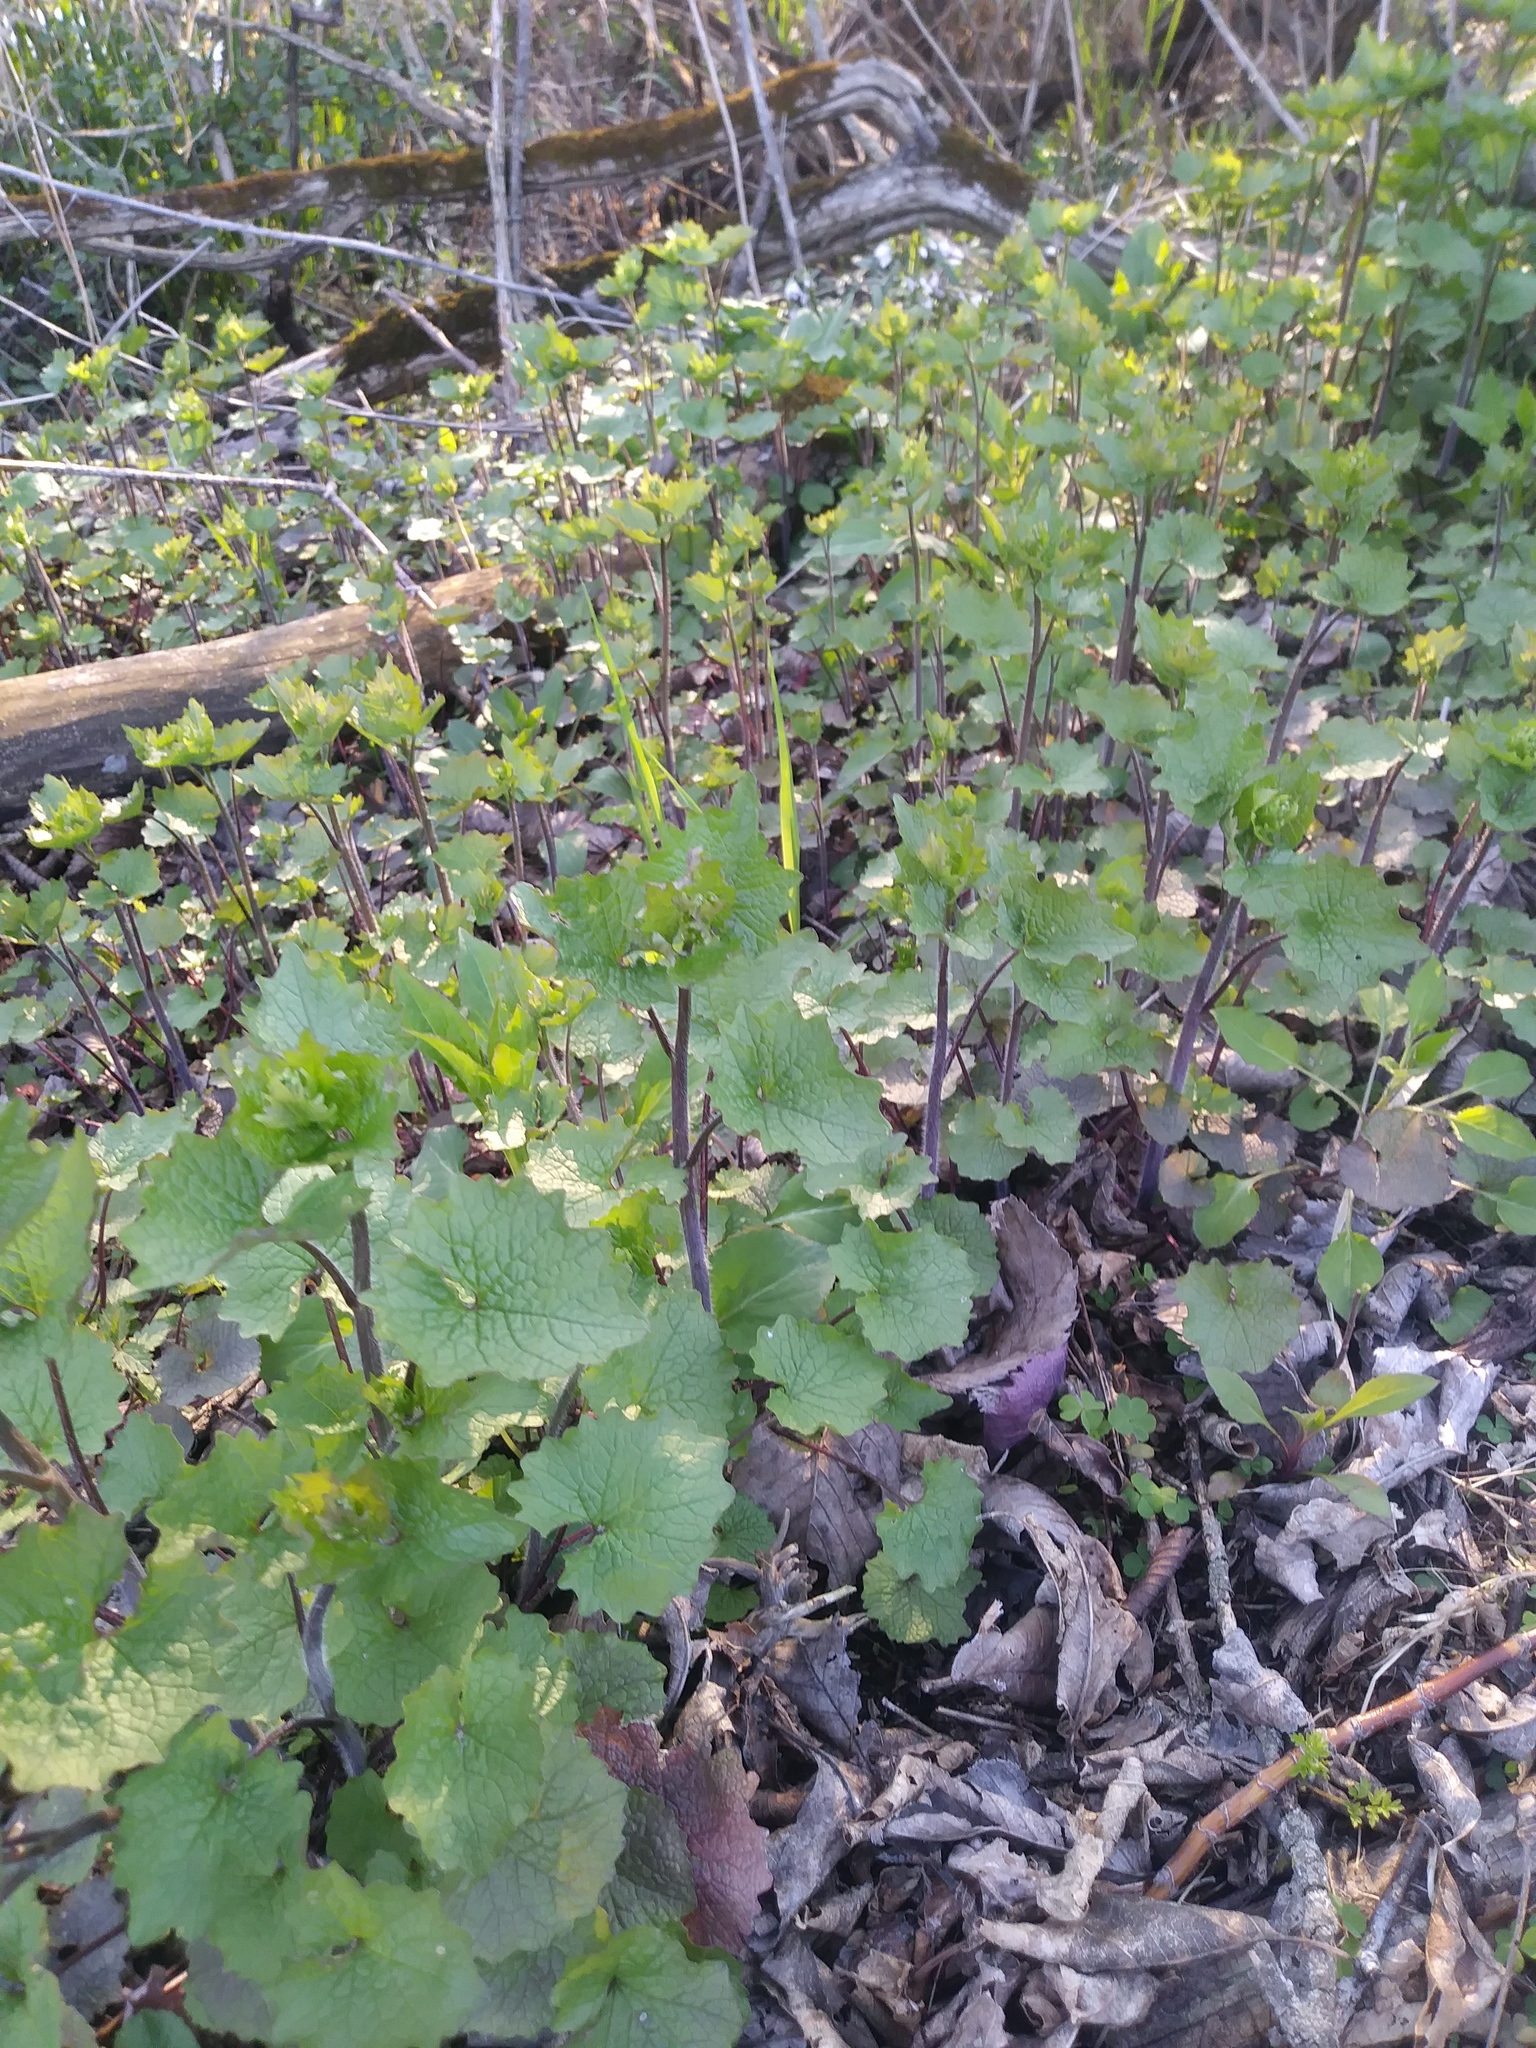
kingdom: Plantae
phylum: Tracheophyta
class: Magnoliopsida
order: Brassicales
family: Brassicaceae
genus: Alliaria
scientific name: Alliaria petiolata
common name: Garlic mustard
